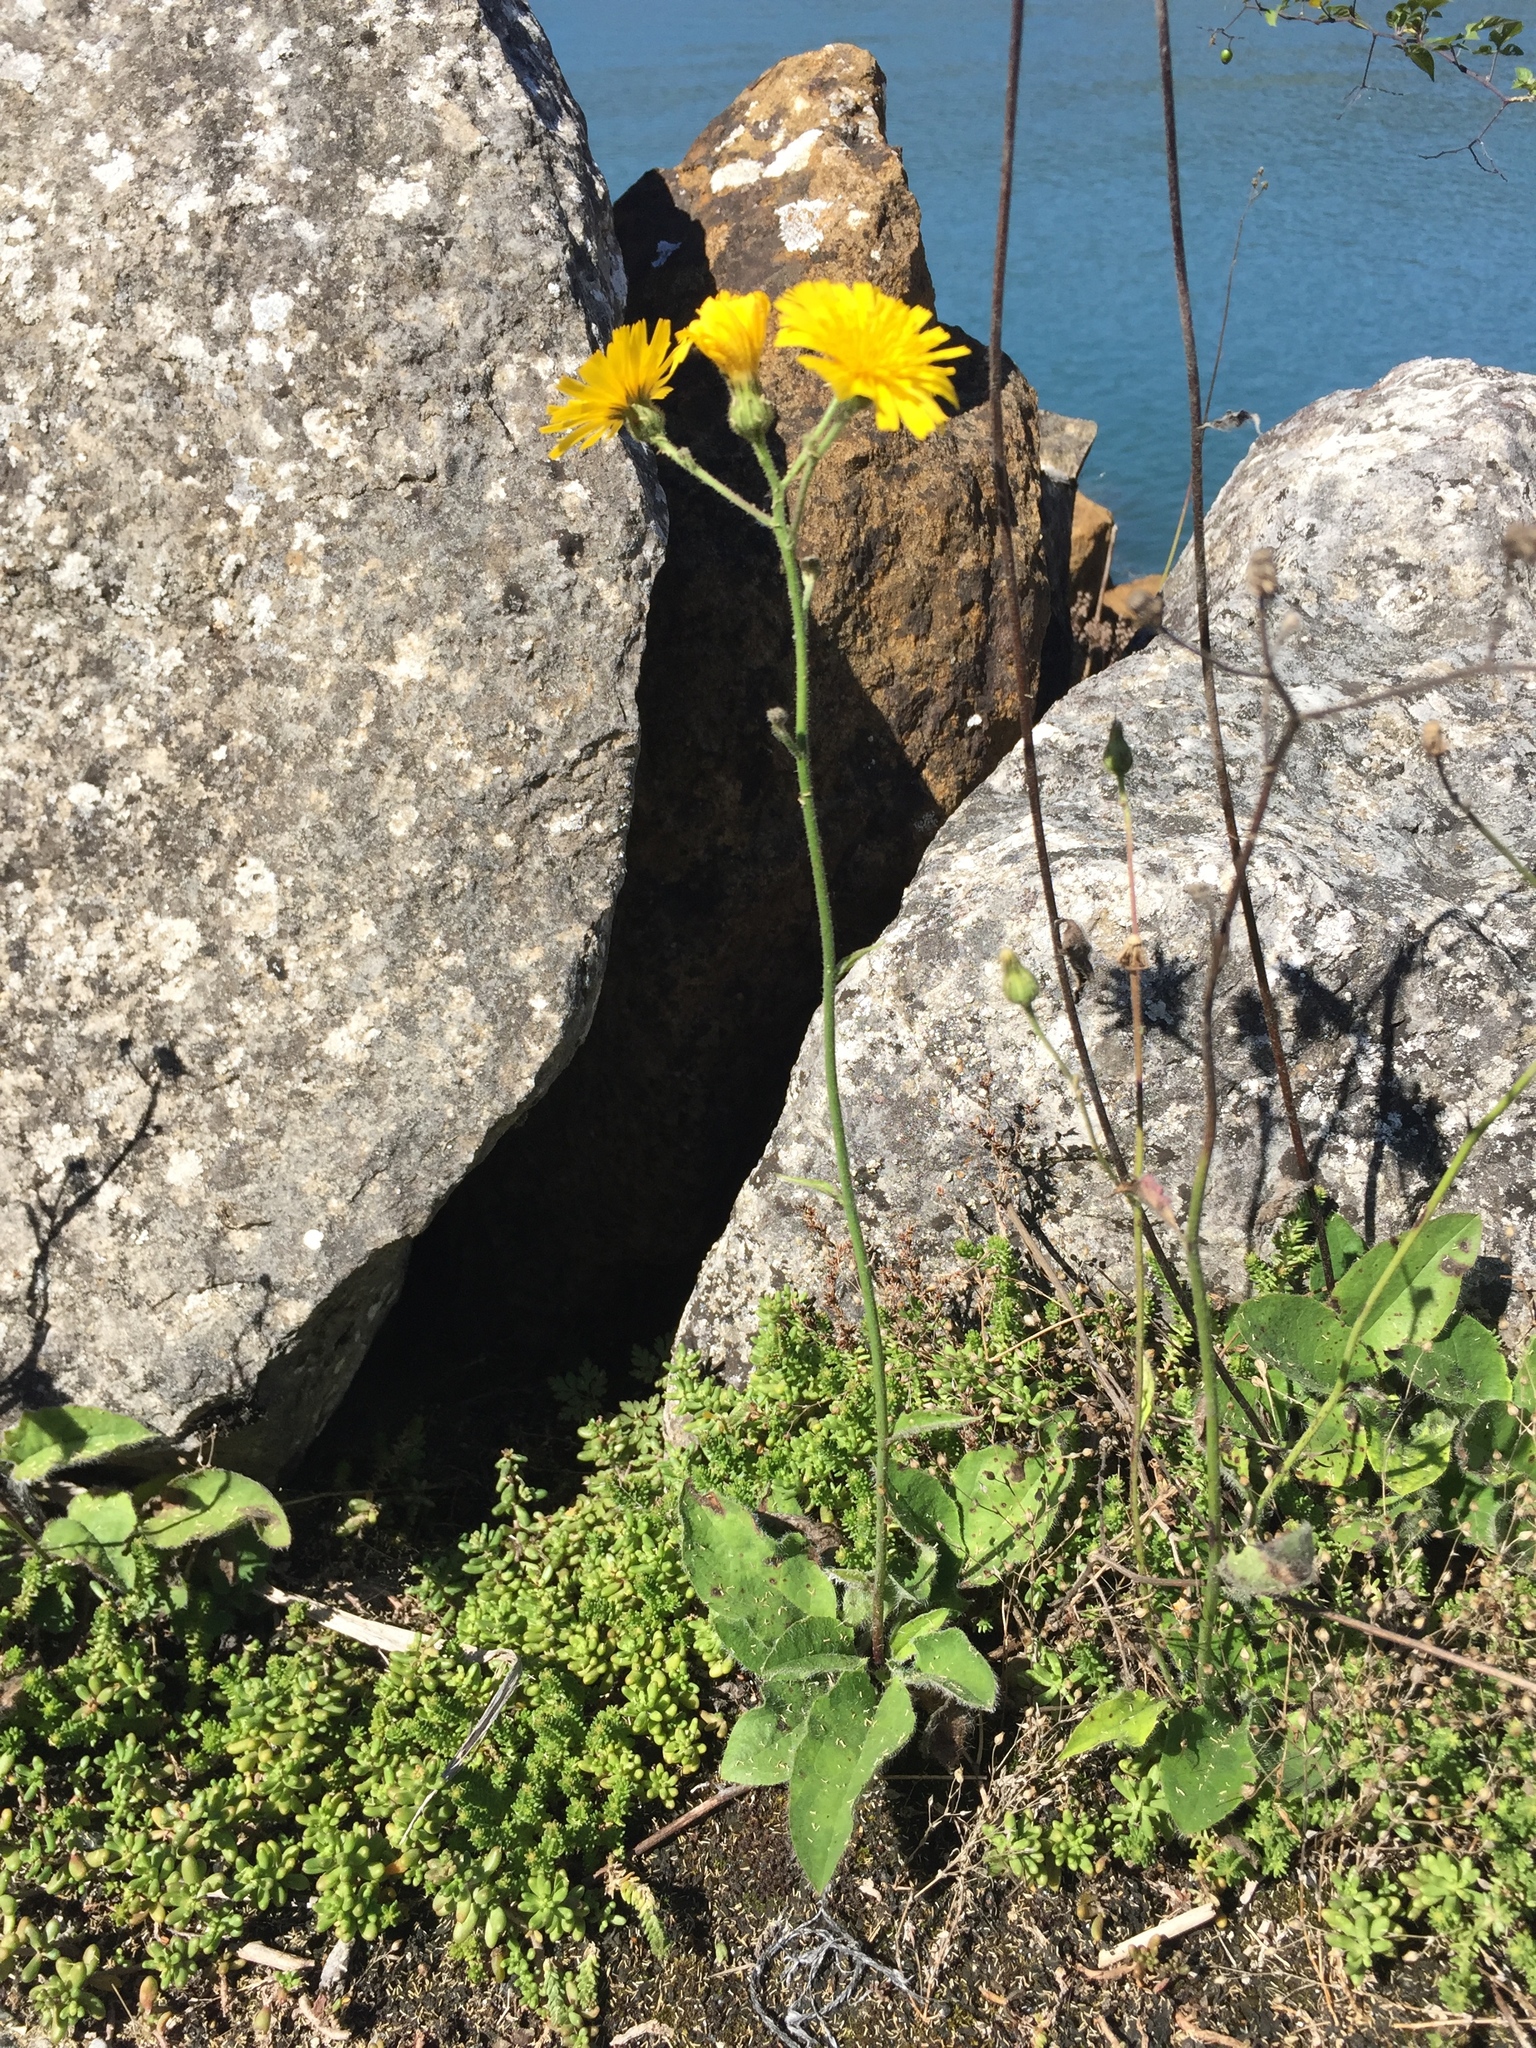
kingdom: Plantae
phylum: Tracheophyta
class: Magnoliopsida
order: Asterales
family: Asteraceae
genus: Hieracium
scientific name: Hieracium murorum
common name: Wall hawkweed
